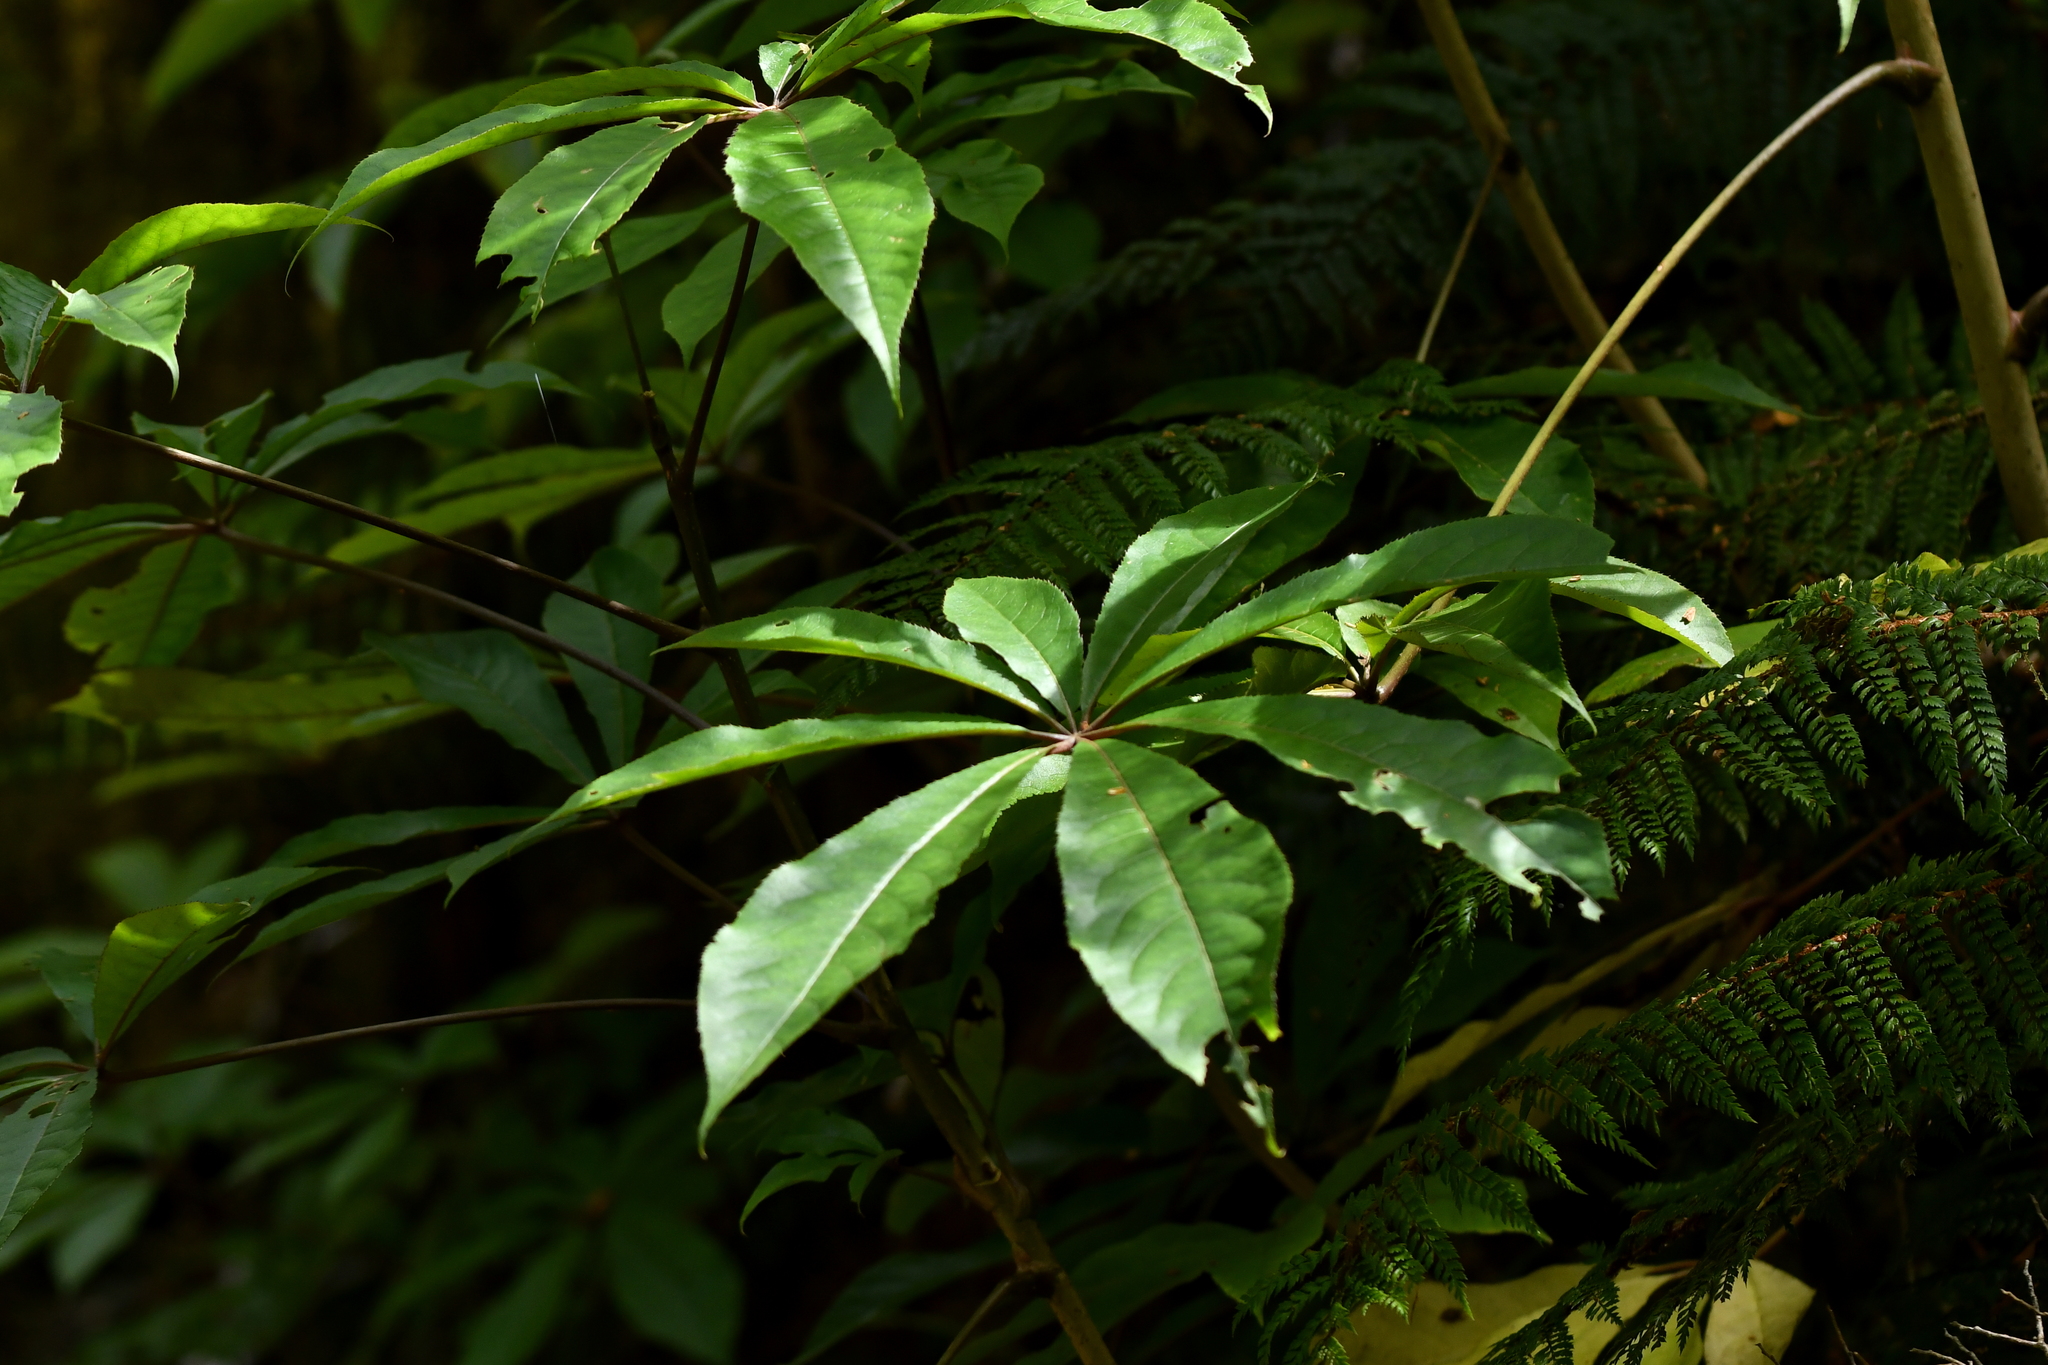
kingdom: Plantae
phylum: Tracheophyta
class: Magnoliopsida
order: Apiales
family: Araliaceae
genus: Schefflera
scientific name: Schefflera digitata
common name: Pate
